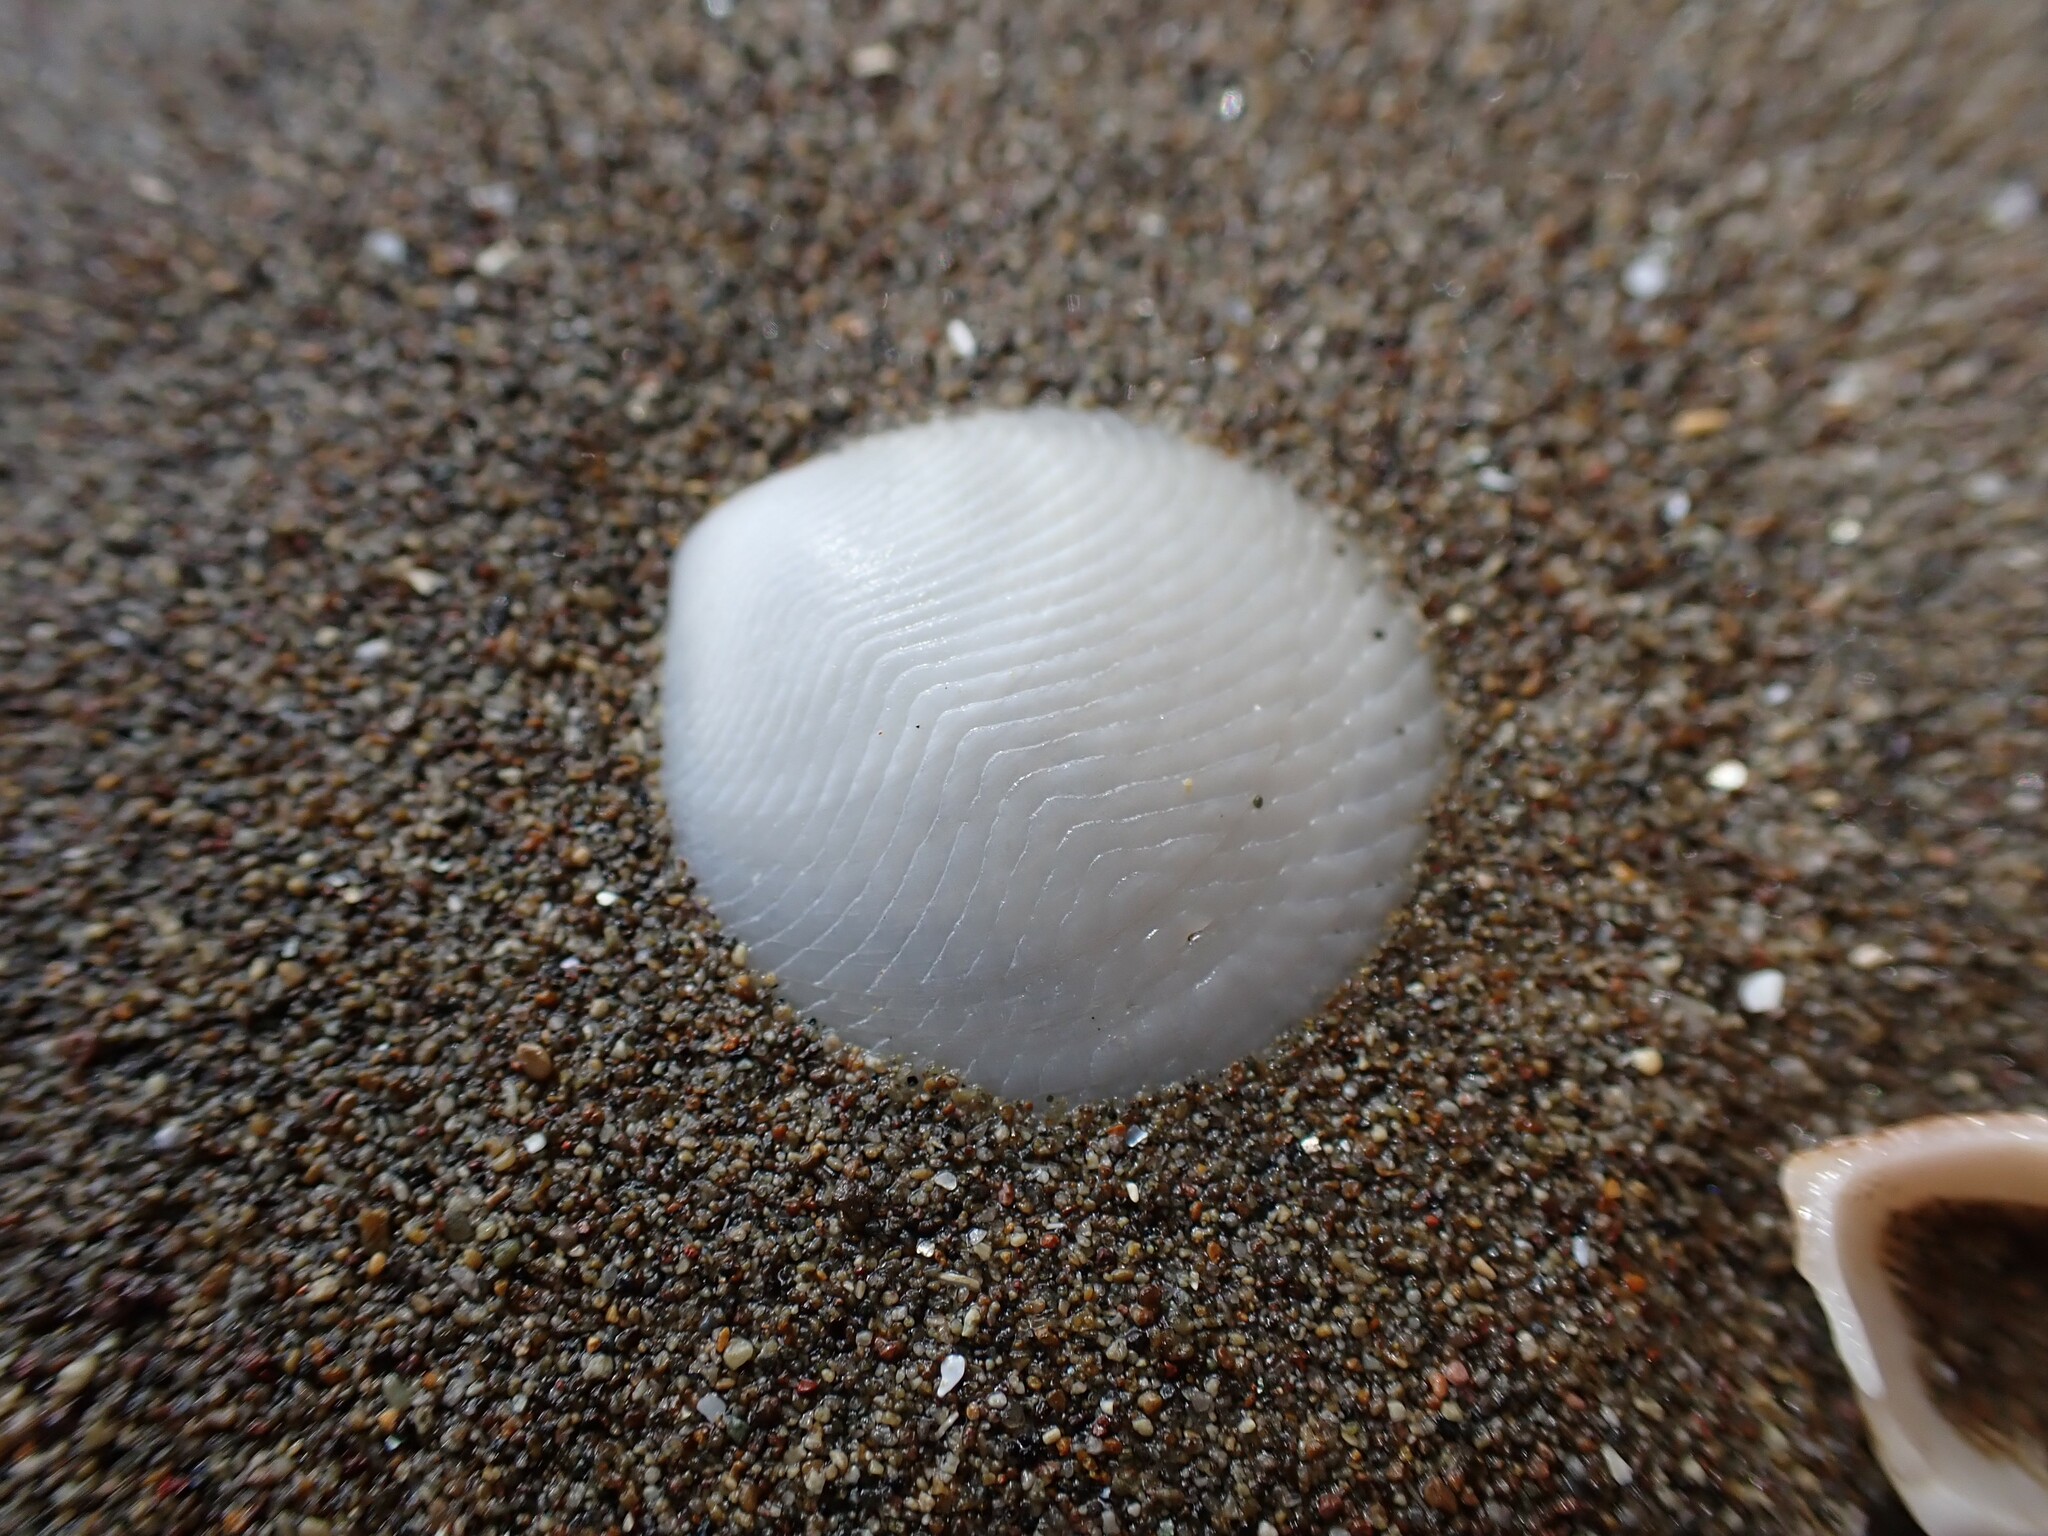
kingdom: Animalia
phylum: Mollusca
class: Bivalvia
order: Lucinida
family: Lucinidae
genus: Divalucina
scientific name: Divalucina cumingi
